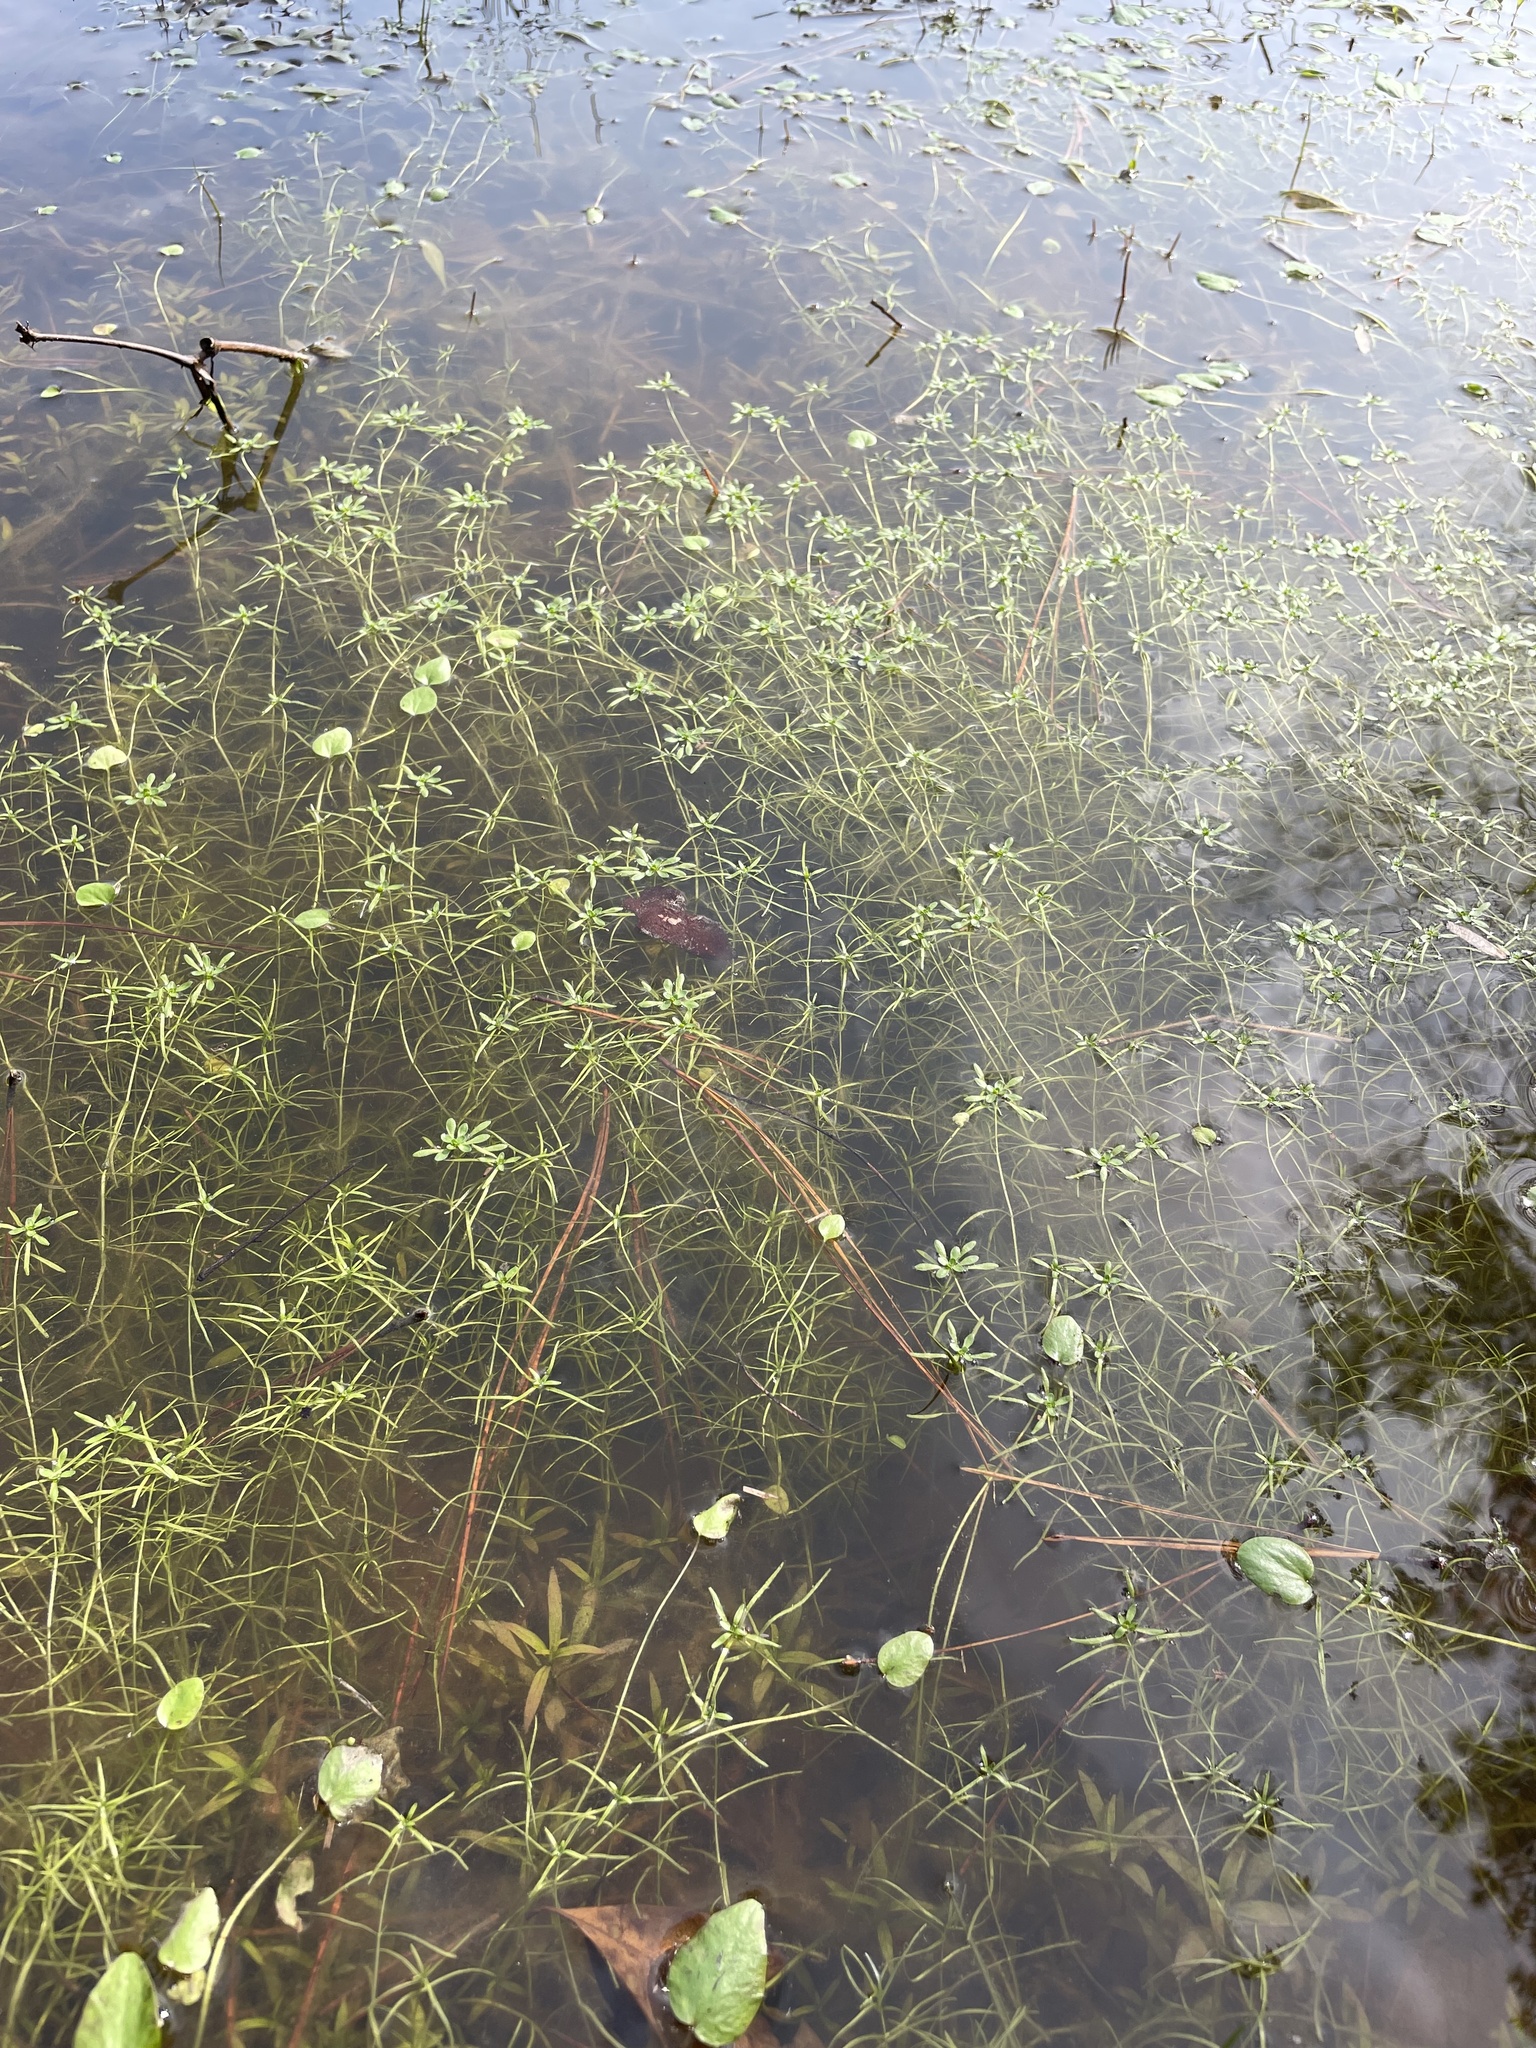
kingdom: Plantae
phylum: Tracheophyta
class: Magnoliopsida
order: Lamiales
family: Plantaginaceae
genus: Callitriche
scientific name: Callitriche heterophylla
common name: Two-headed water-starwort
